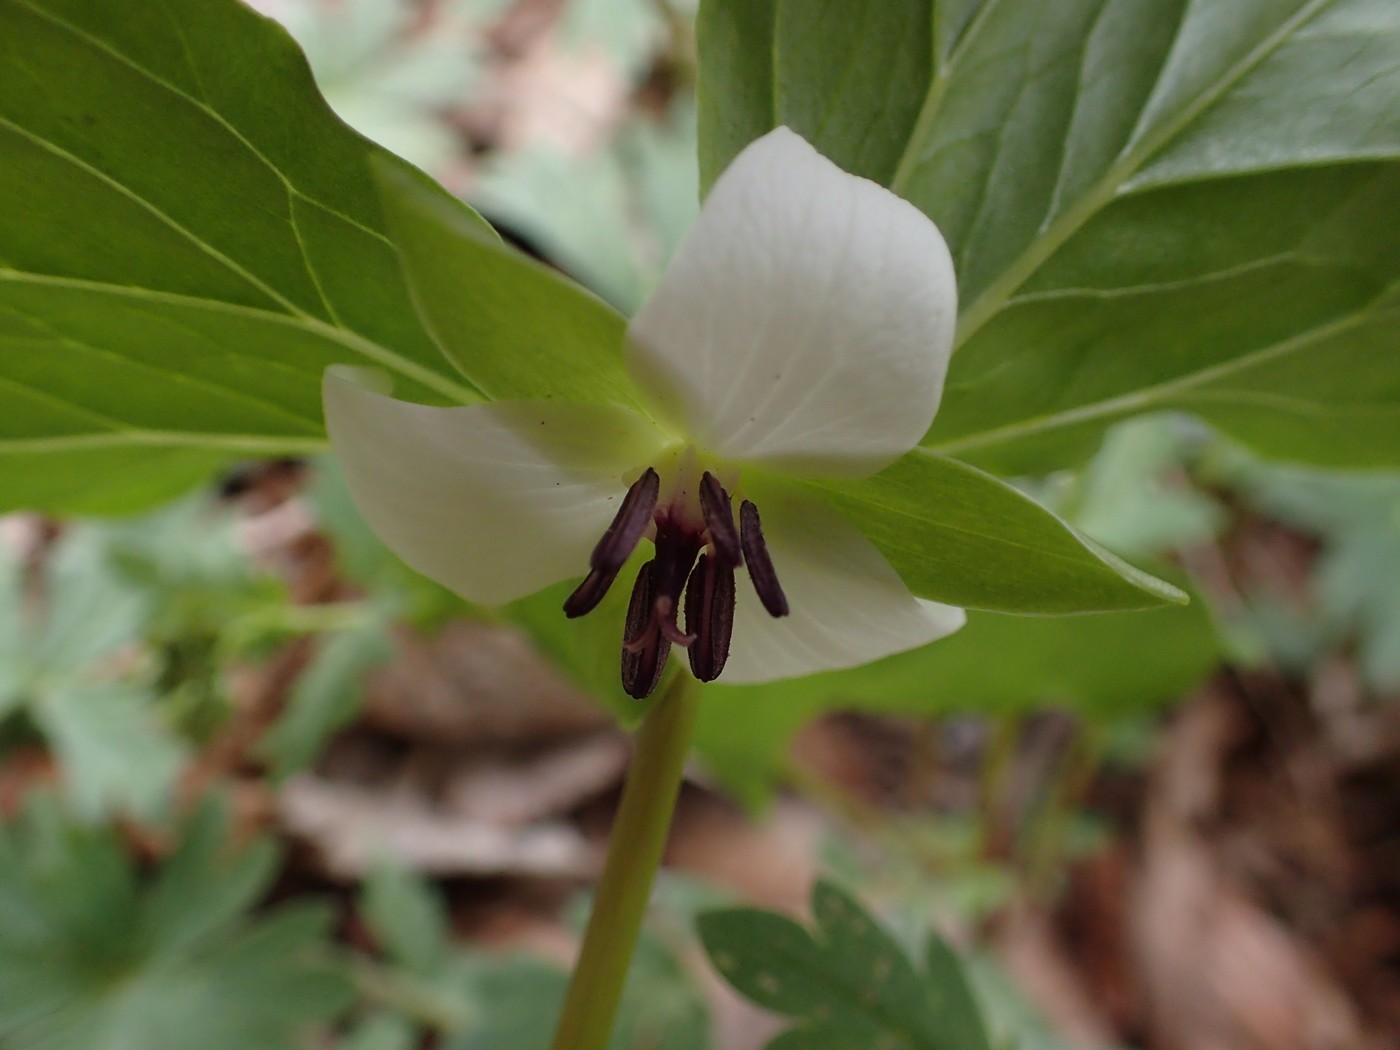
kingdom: Plantae
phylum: Tracheophyta
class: Liliopsida
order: Liliales
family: Melanthiaceae
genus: Trillium
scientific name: Trillium rugelii
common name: Ill-scented trillium
